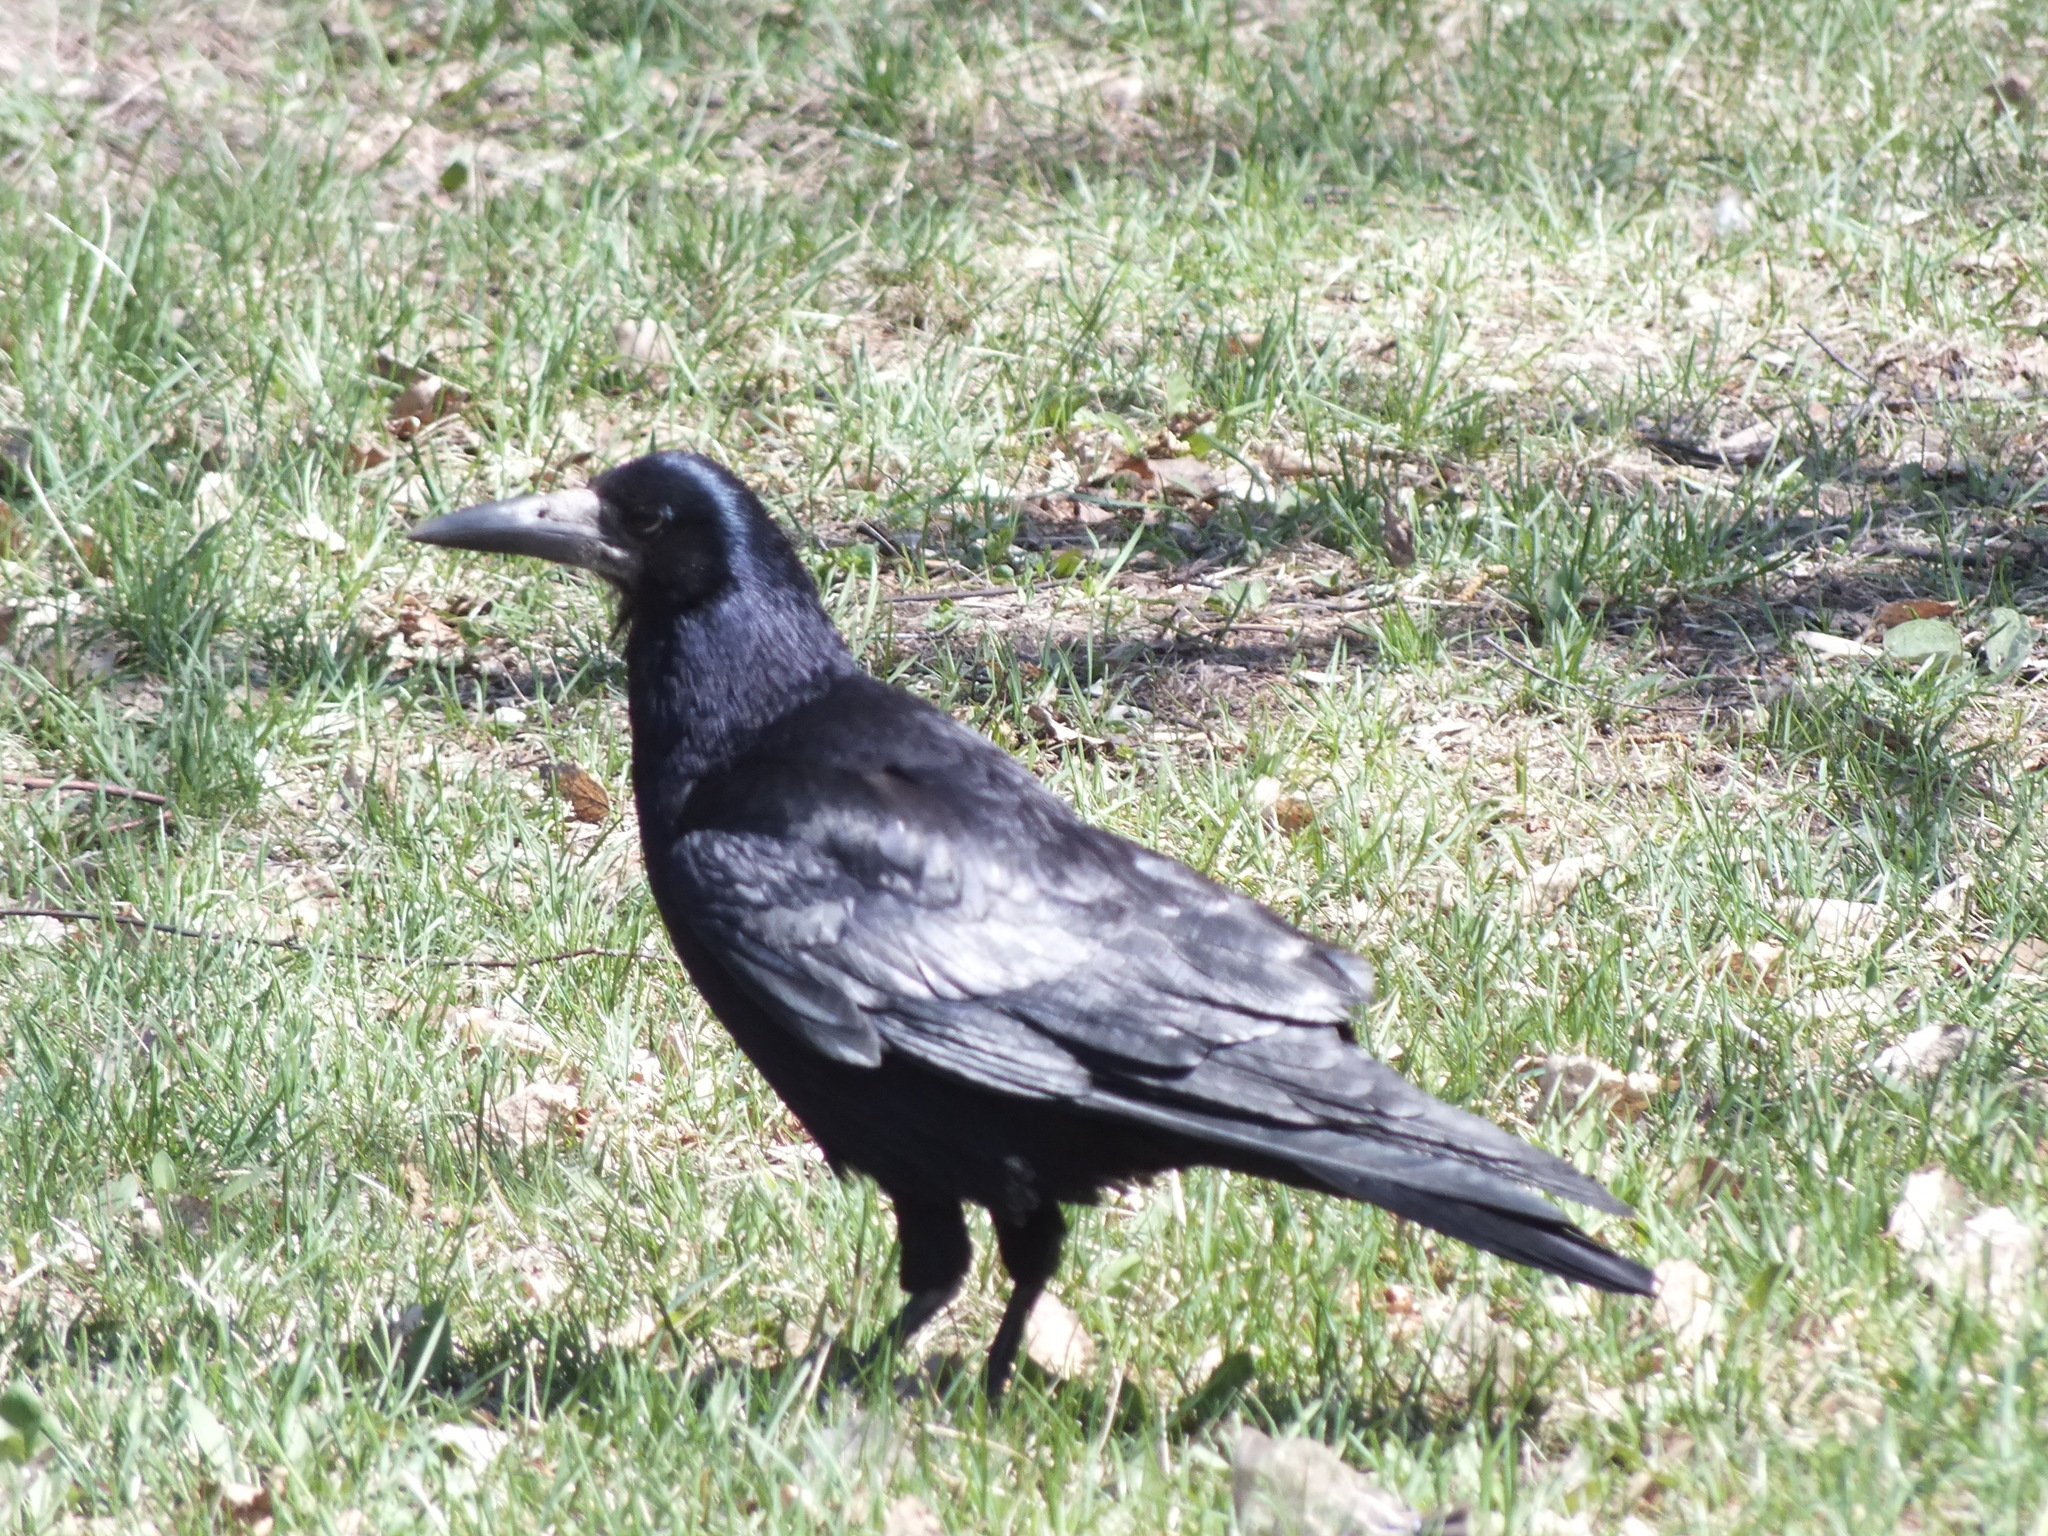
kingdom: Animalia
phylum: Chordata
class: Aves
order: Passeriformes
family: Corvidae
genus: Corvus
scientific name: Corvus frugilegus
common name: Rook
